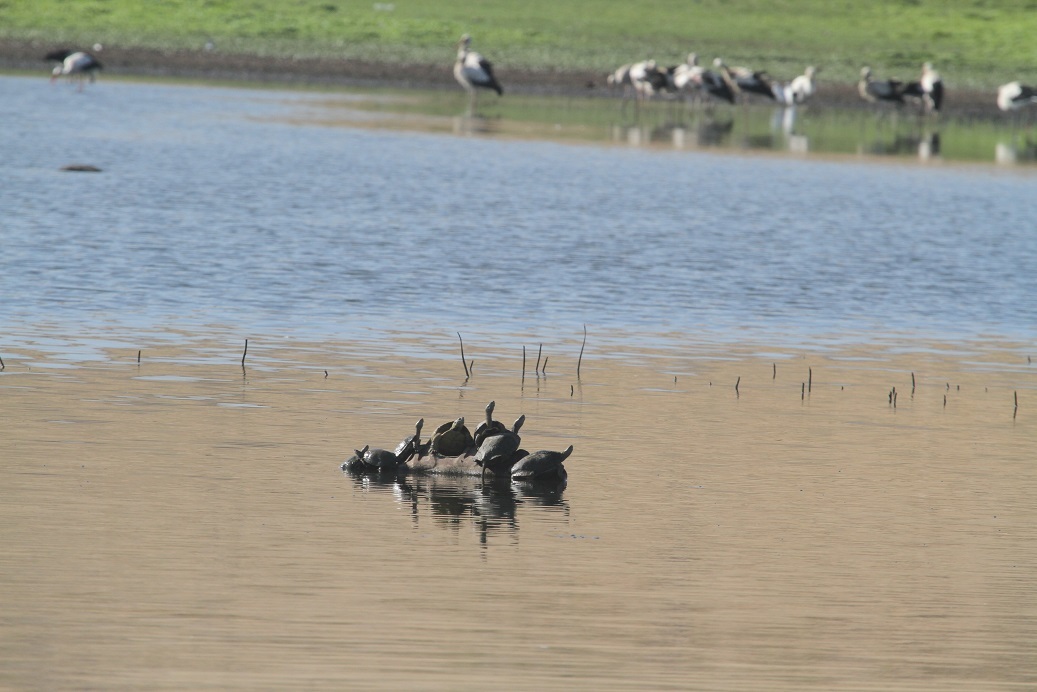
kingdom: Animalia
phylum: Chordata
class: Testudines
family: Geoemydidae
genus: Mauremys
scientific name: Mauremys leprosa
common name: Mediterranean pond turtle
